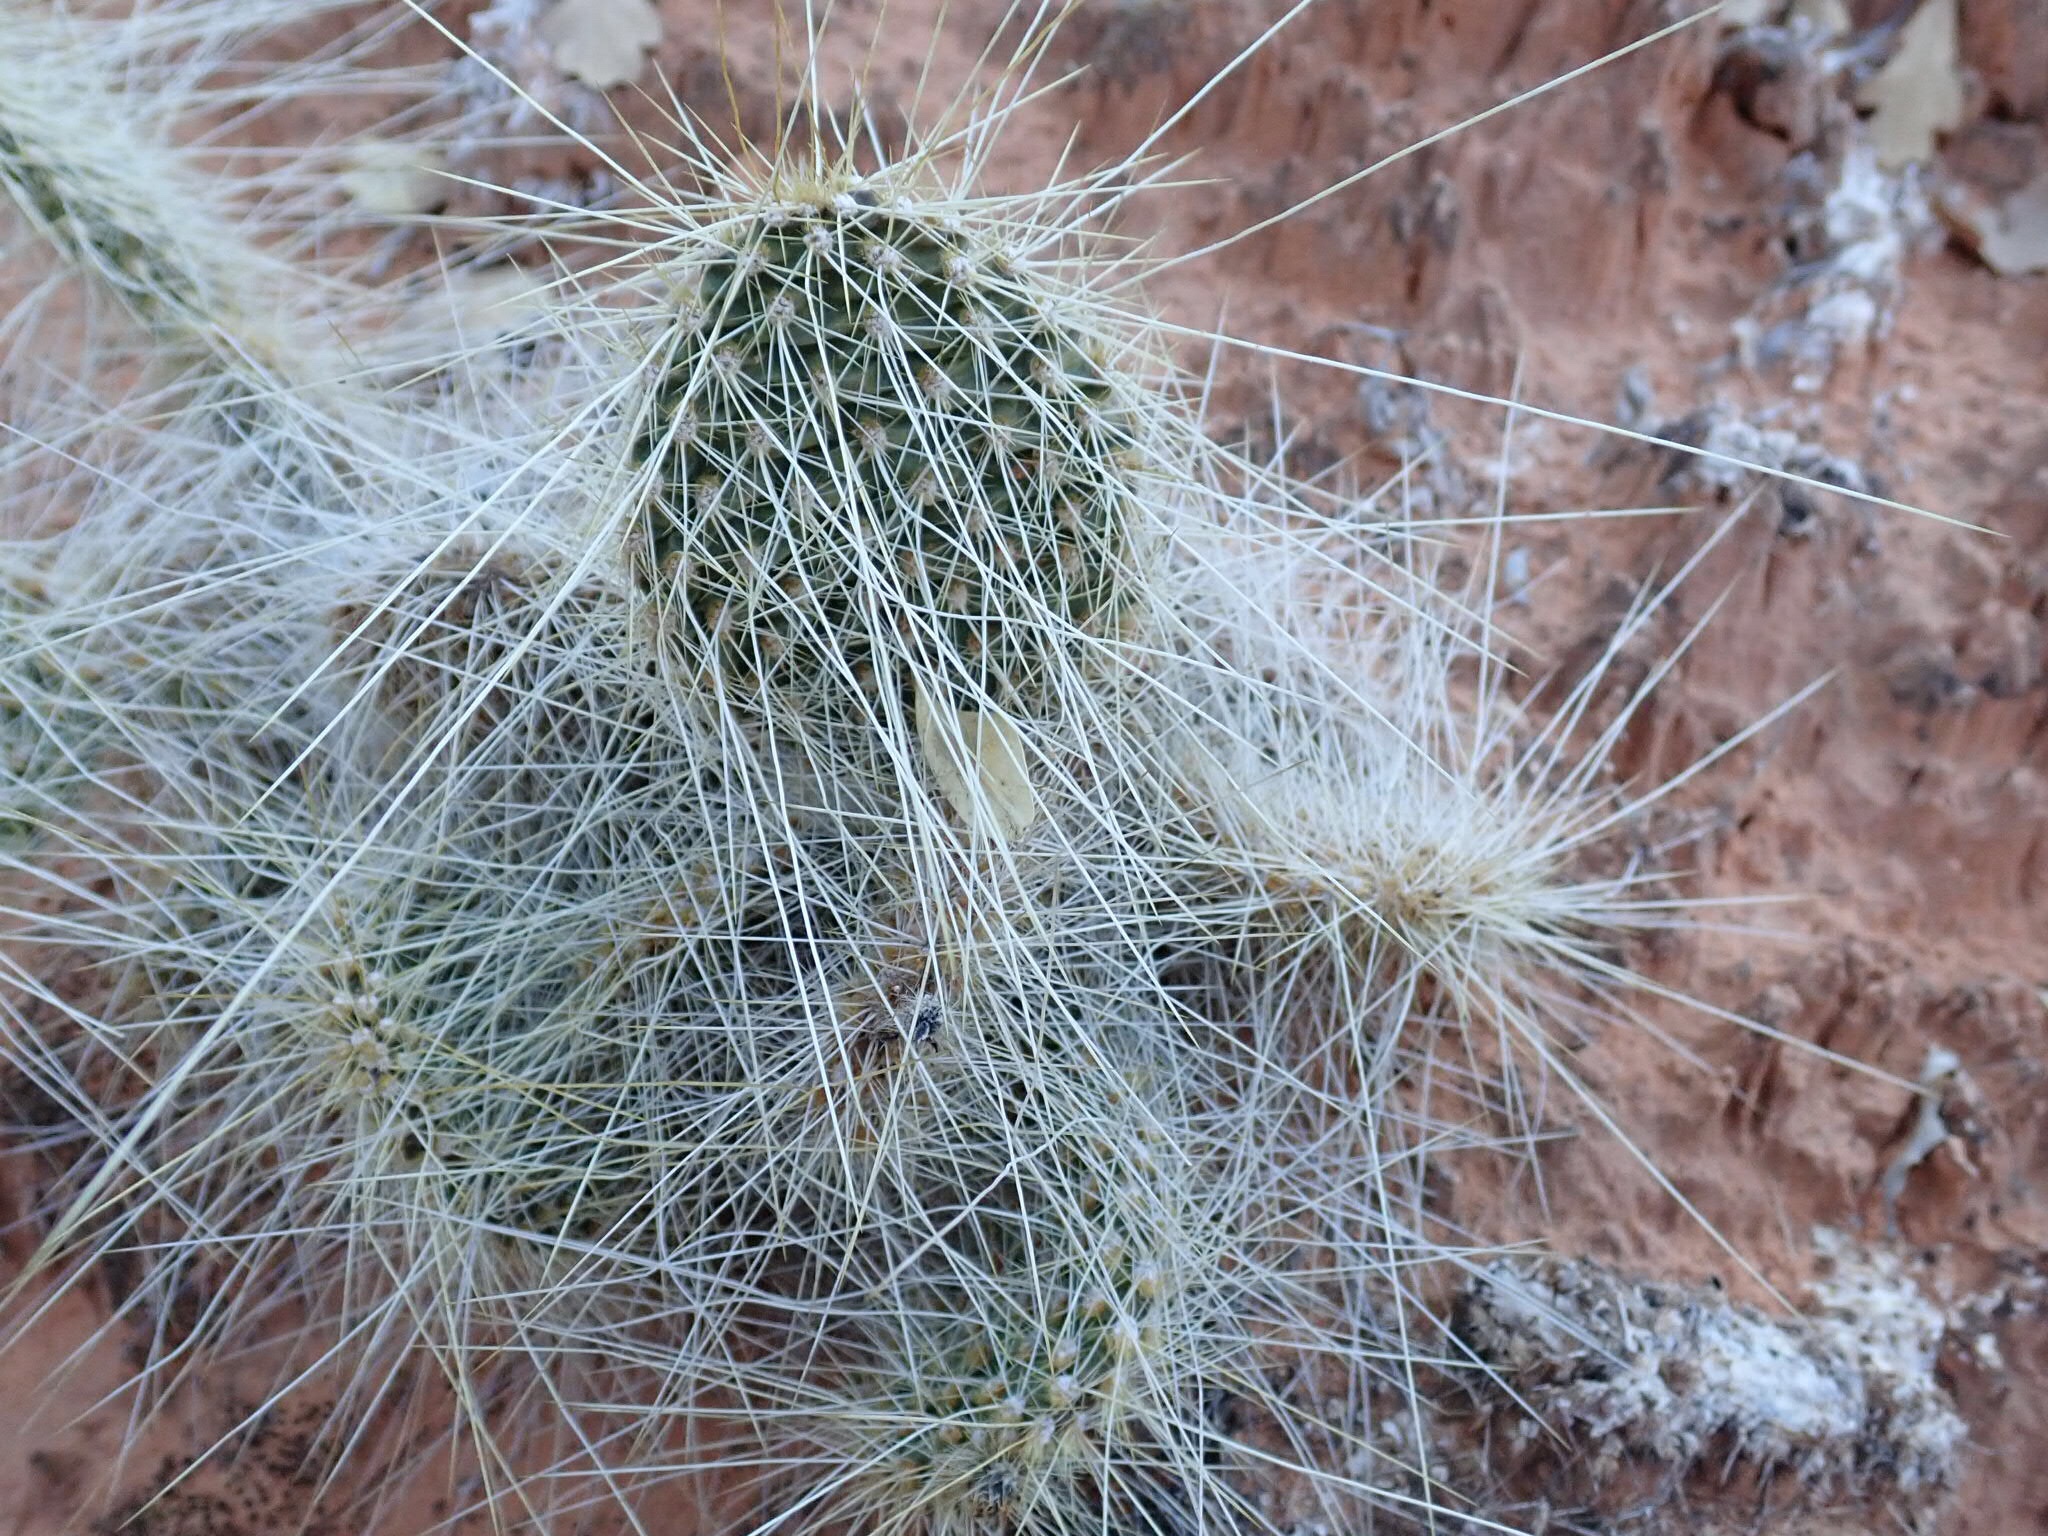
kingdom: Plantae
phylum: Tracheophyta
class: Magnoliopsida
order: Caryophyllales
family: Cactaceae
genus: Opuntia
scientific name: Opuntia polyacantha
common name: Plains prickly-pear
